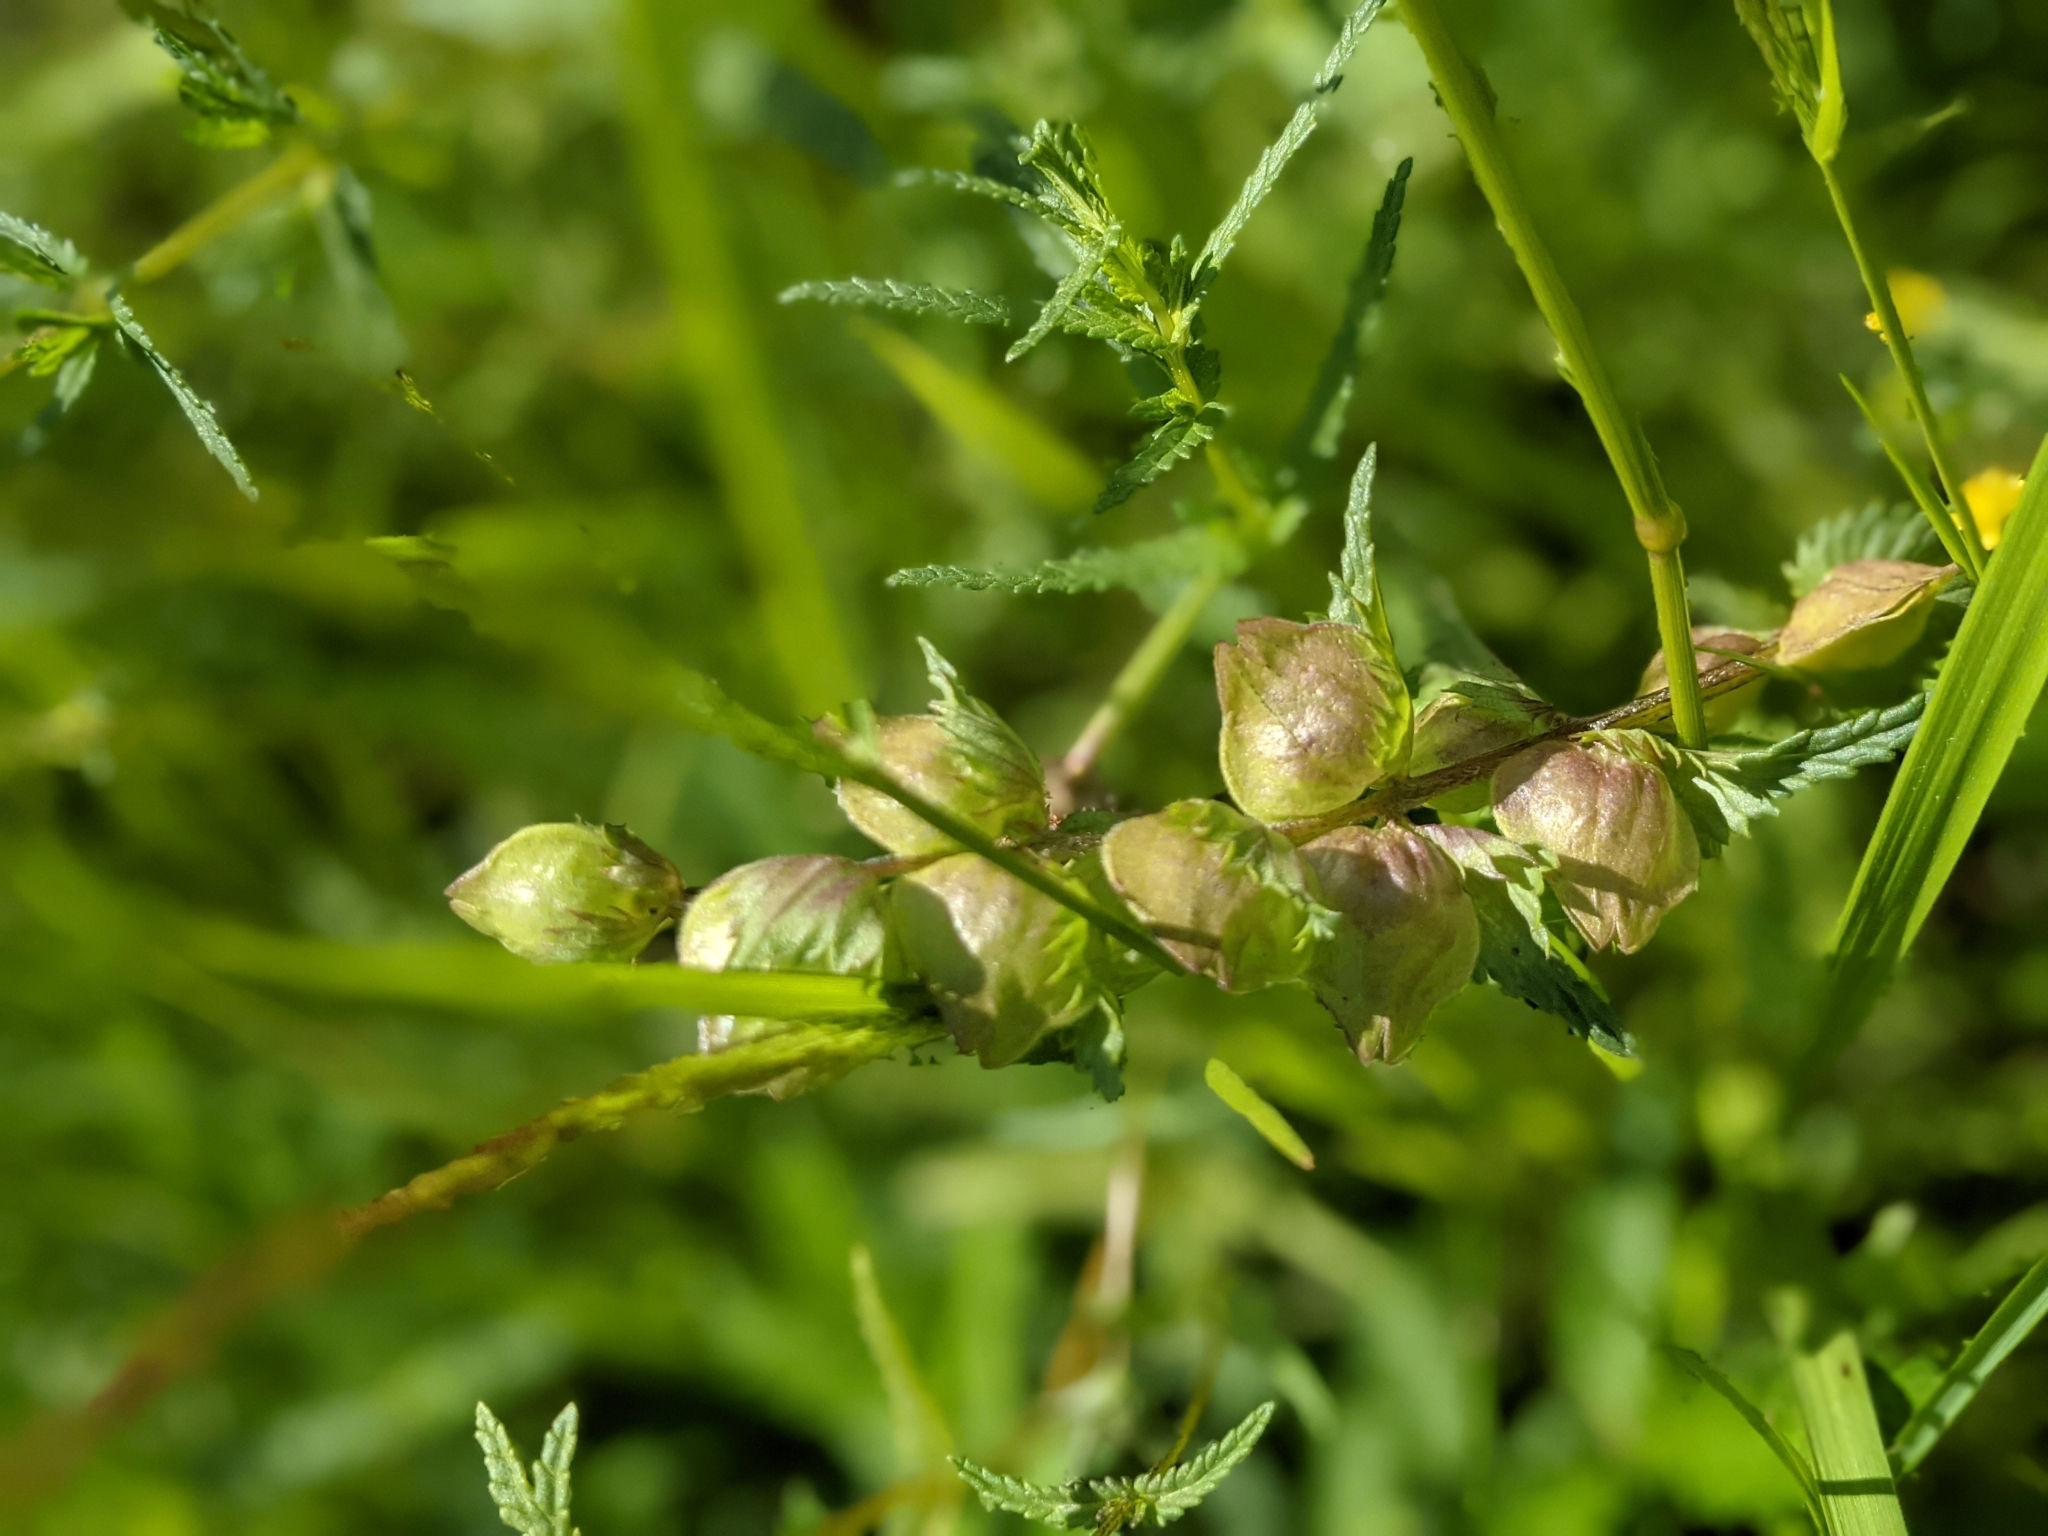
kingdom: Plantae
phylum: Tracheophyta
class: Magnoliopsida
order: Lamiales
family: Orobanchaceae
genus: Rhinanthus
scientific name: Rhinanthus minor
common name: Yellow-rattle
